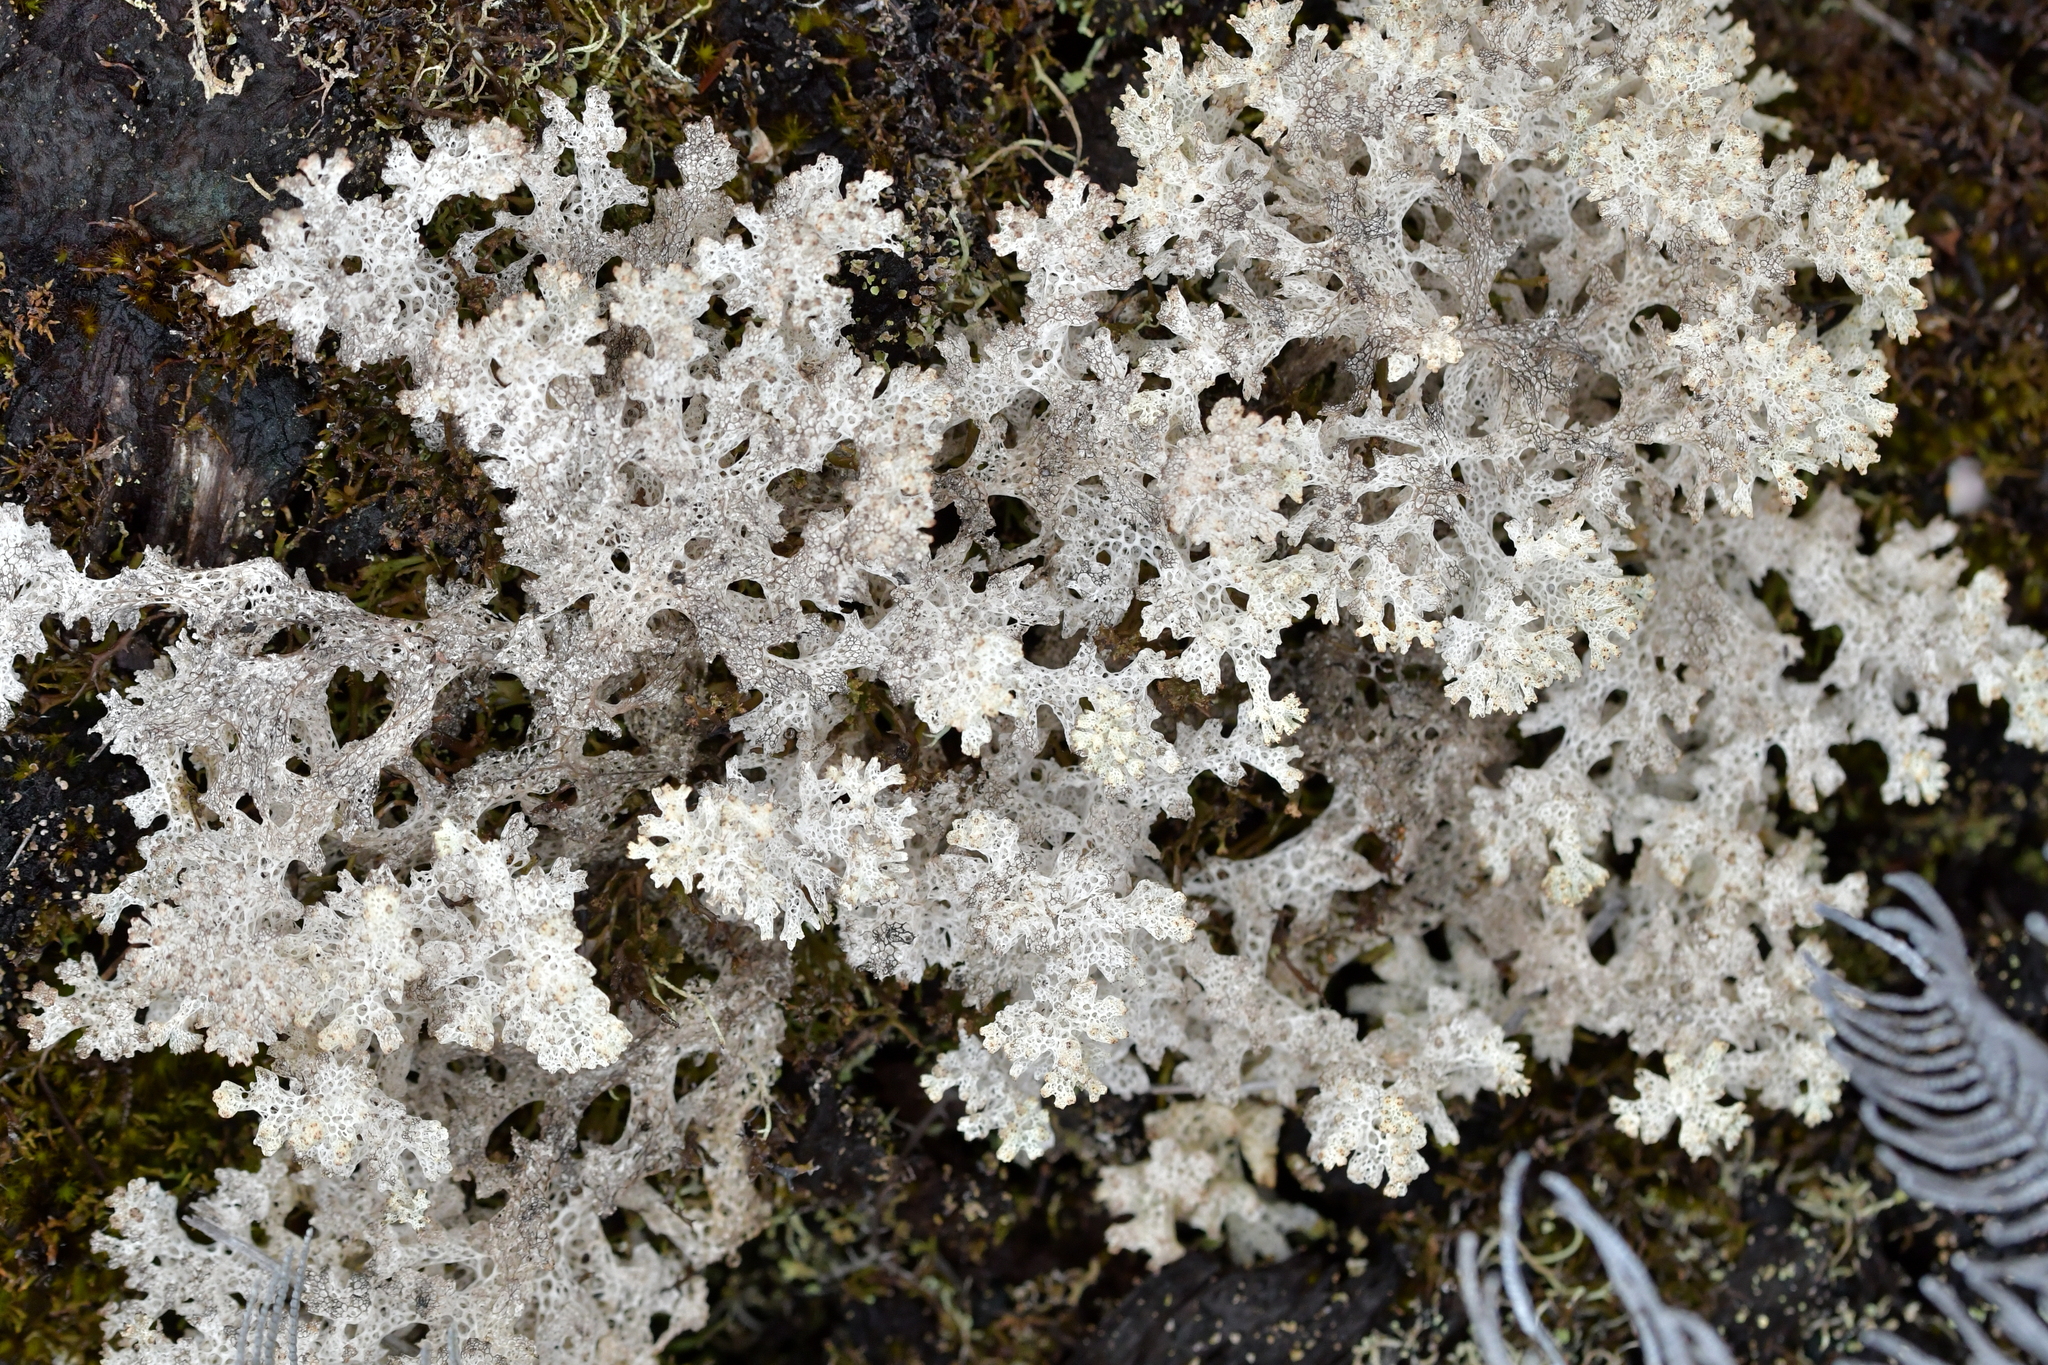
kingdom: Fungi
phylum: Ascomycota
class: Lecanoromycetes
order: Lecanorales
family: Cladoniaceae
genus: Pulchrocladia
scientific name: Pulchrocladia retipora
